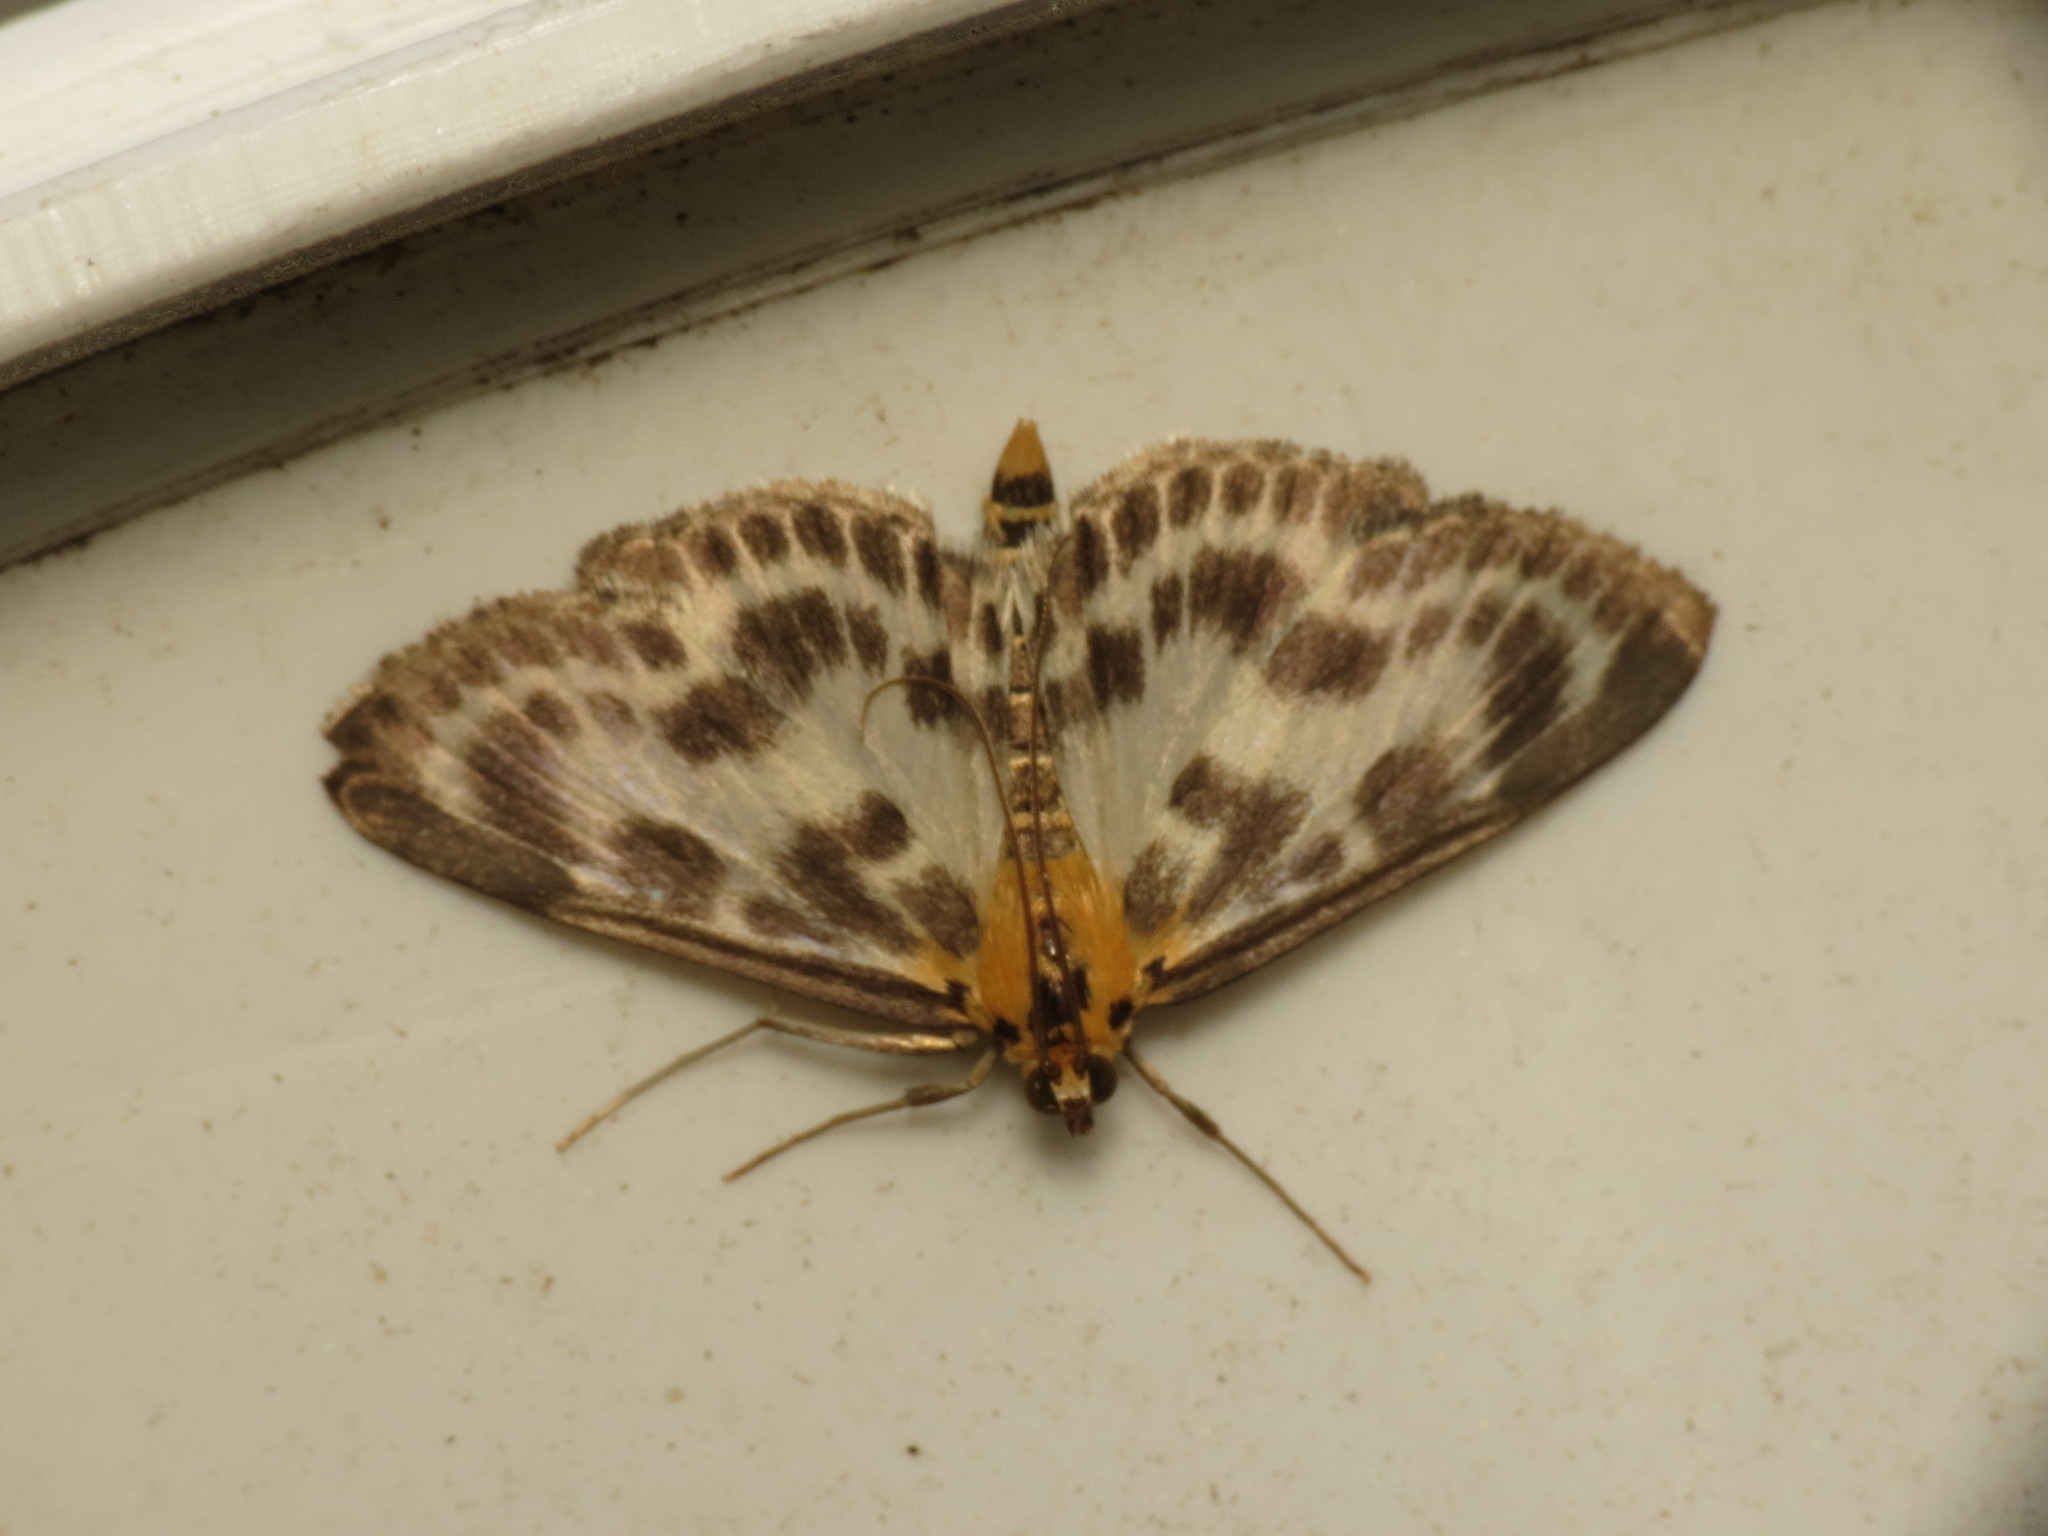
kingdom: Animalia
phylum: Arthropoda
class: Insecta
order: Lepidoptera
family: Crambidae
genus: Anania
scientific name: Anania hortulata
